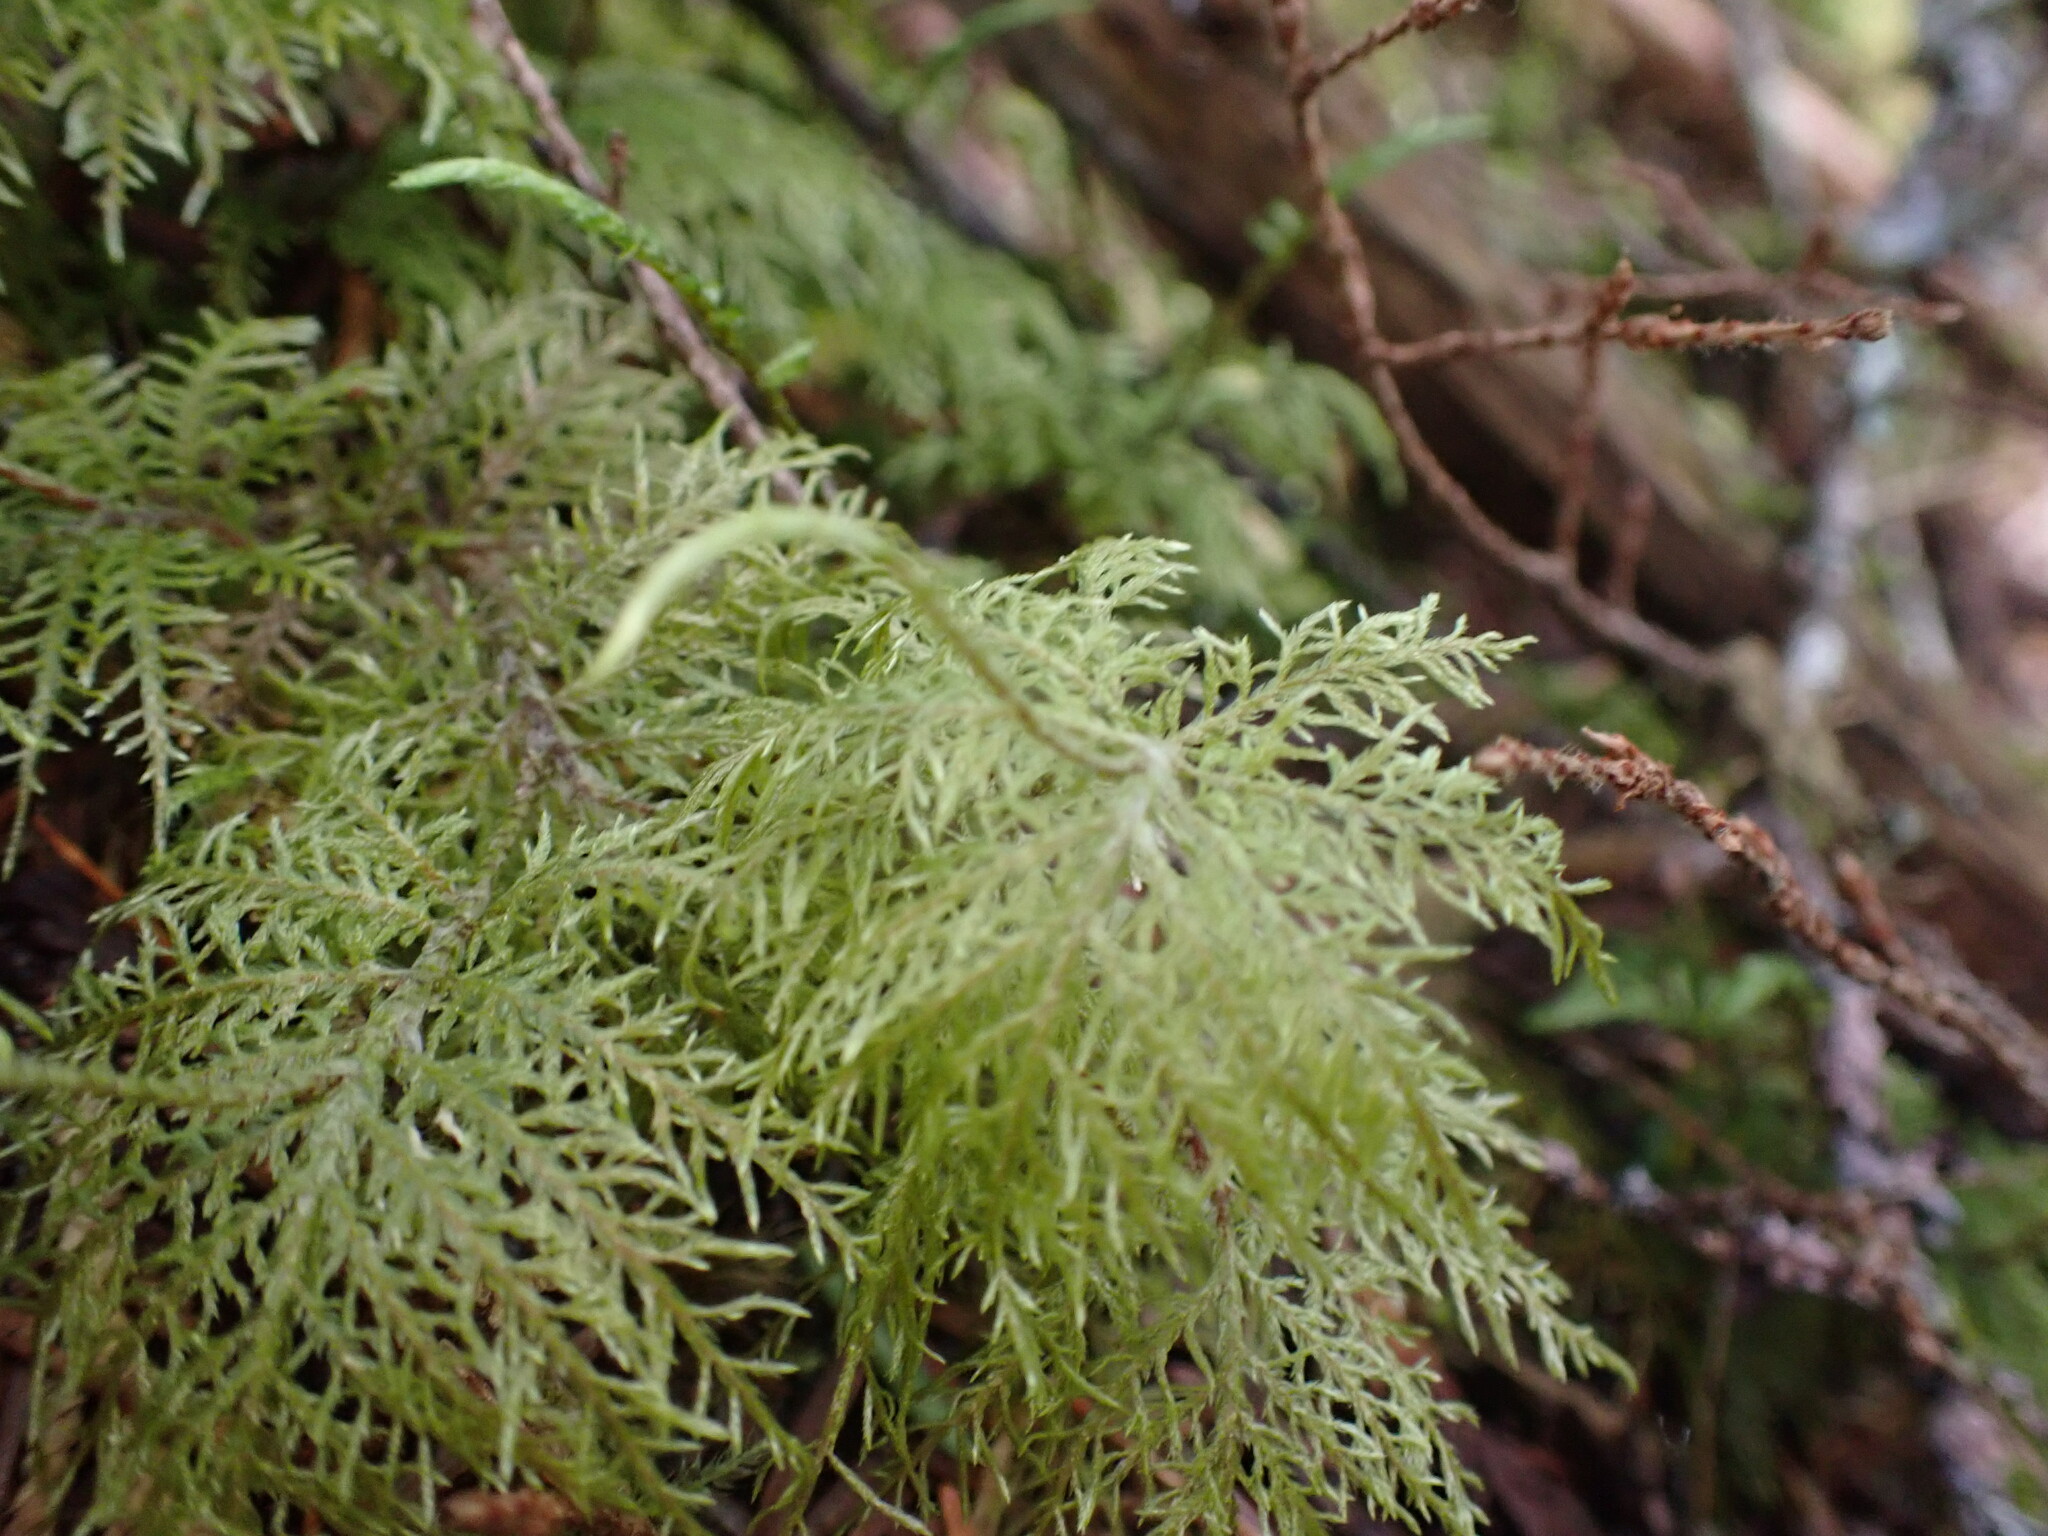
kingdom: Plantae
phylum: Bryophyta
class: Bryopsida
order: Hypnales
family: Hylocomiaceae
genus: Hylocomium
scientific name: Hylocomium splendens
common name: Stairstep moss
